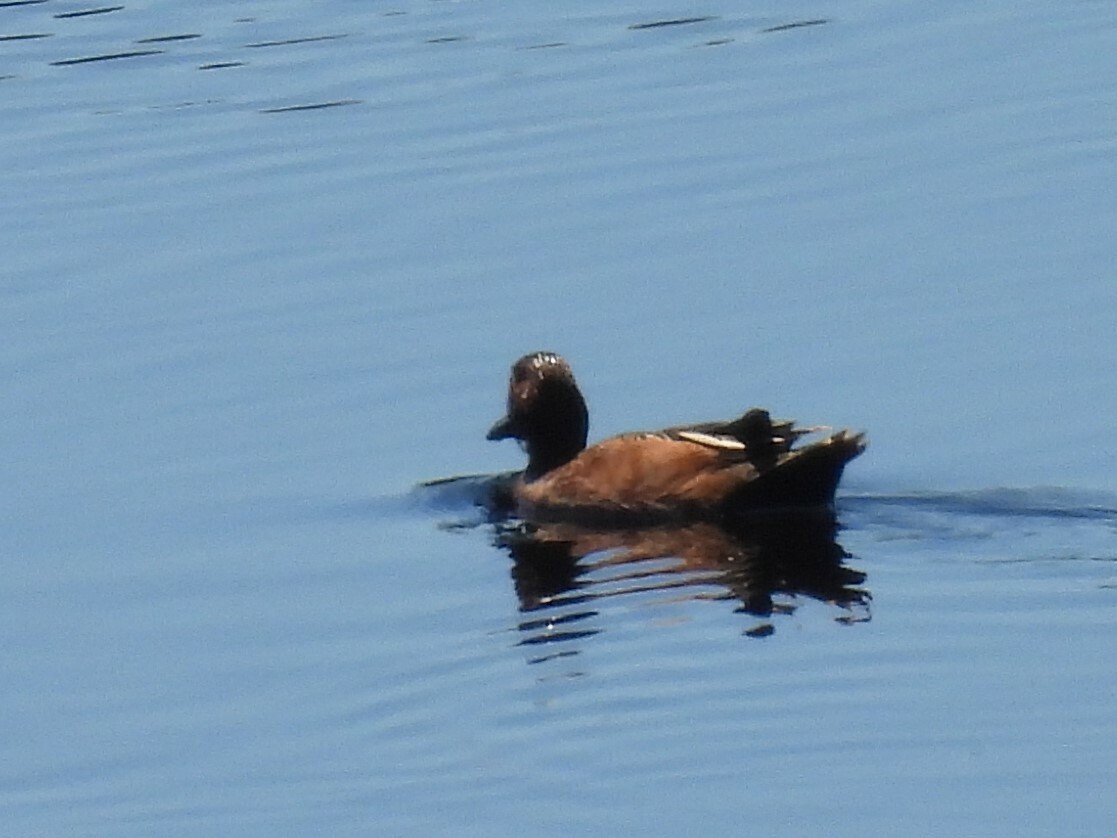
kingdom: Animalia
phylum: Chordata
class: Aves
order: Anseriformes
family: Anatidae
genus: Spatula
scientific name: Spatula cyanoptera
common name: Cinnamon teal
